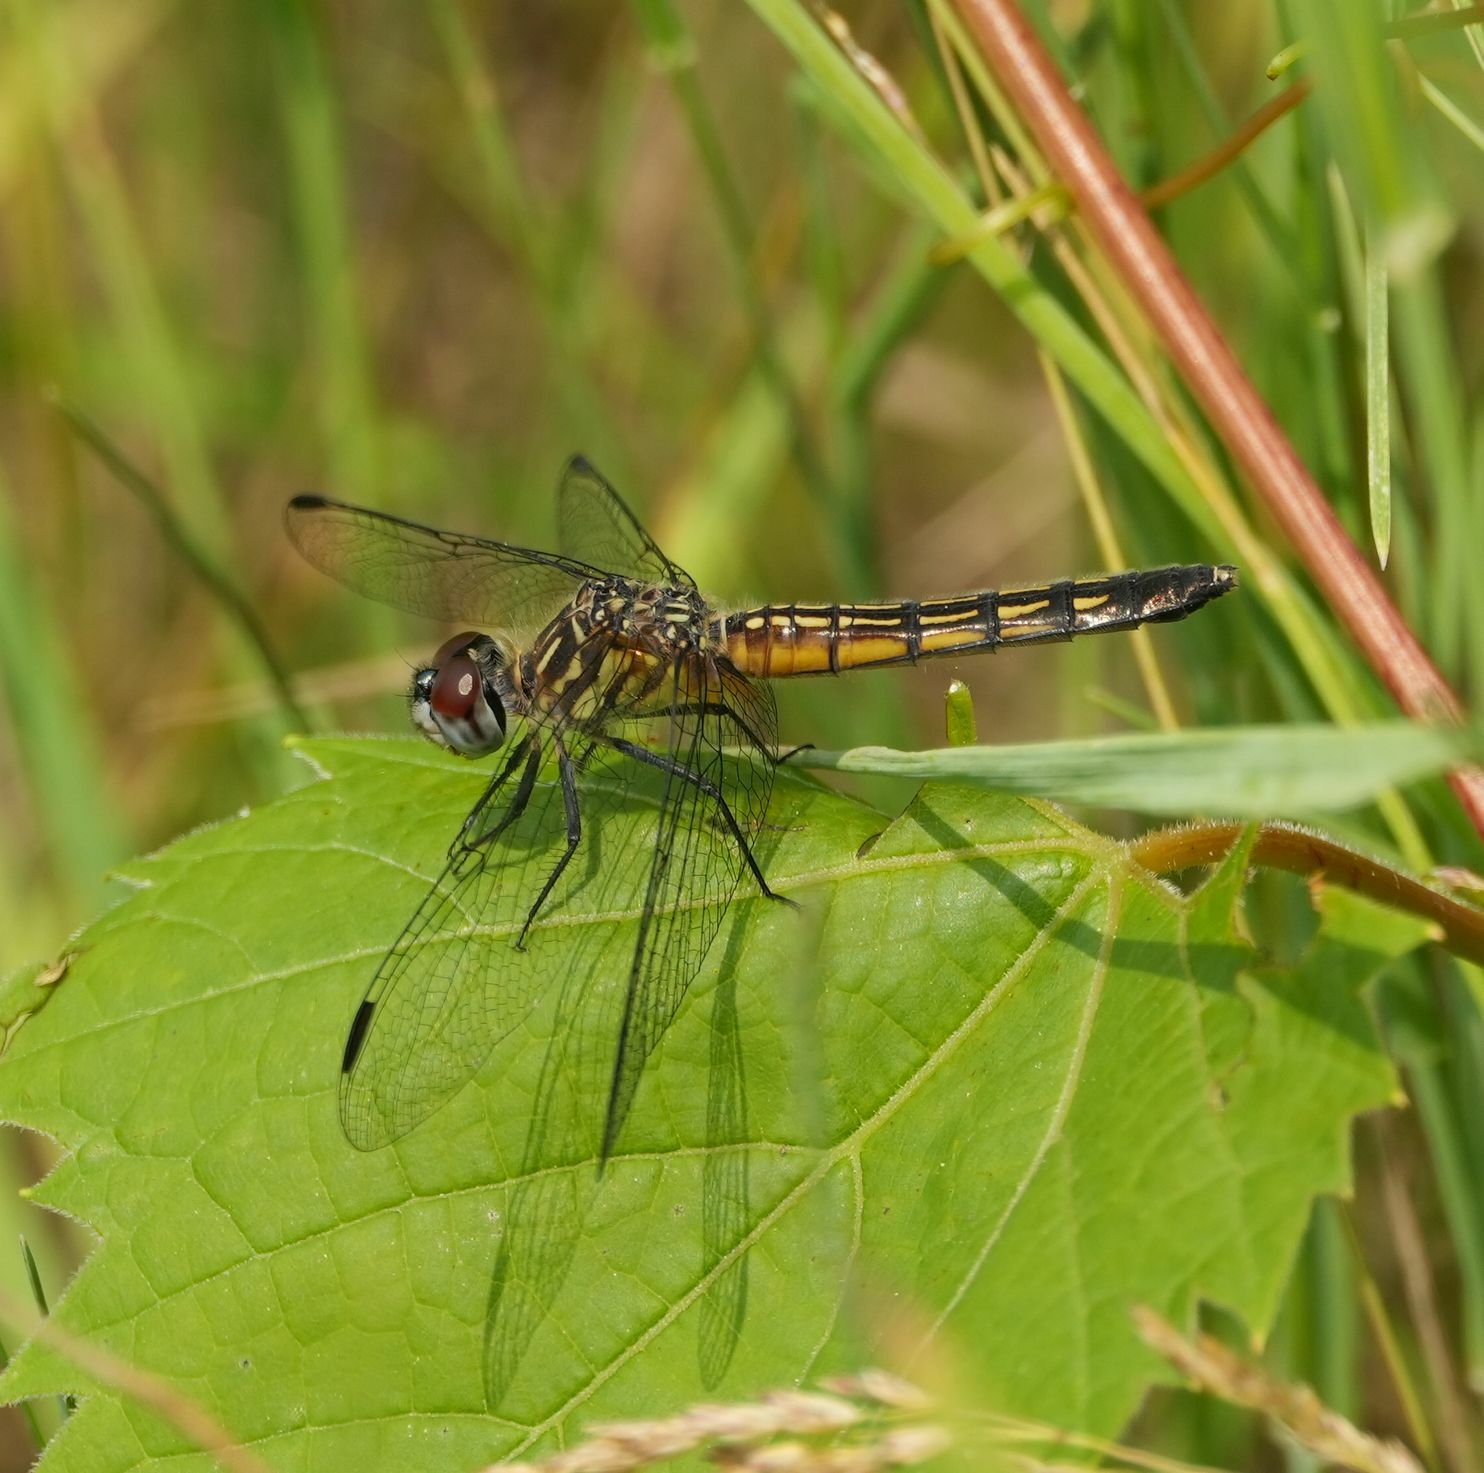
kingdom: Animalia
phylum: Arthropoda
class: Insecta
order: Odonata
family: Libellulidae
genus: Pachydiplax
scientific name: Pachydiplax longipennis
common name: Blue dasher
